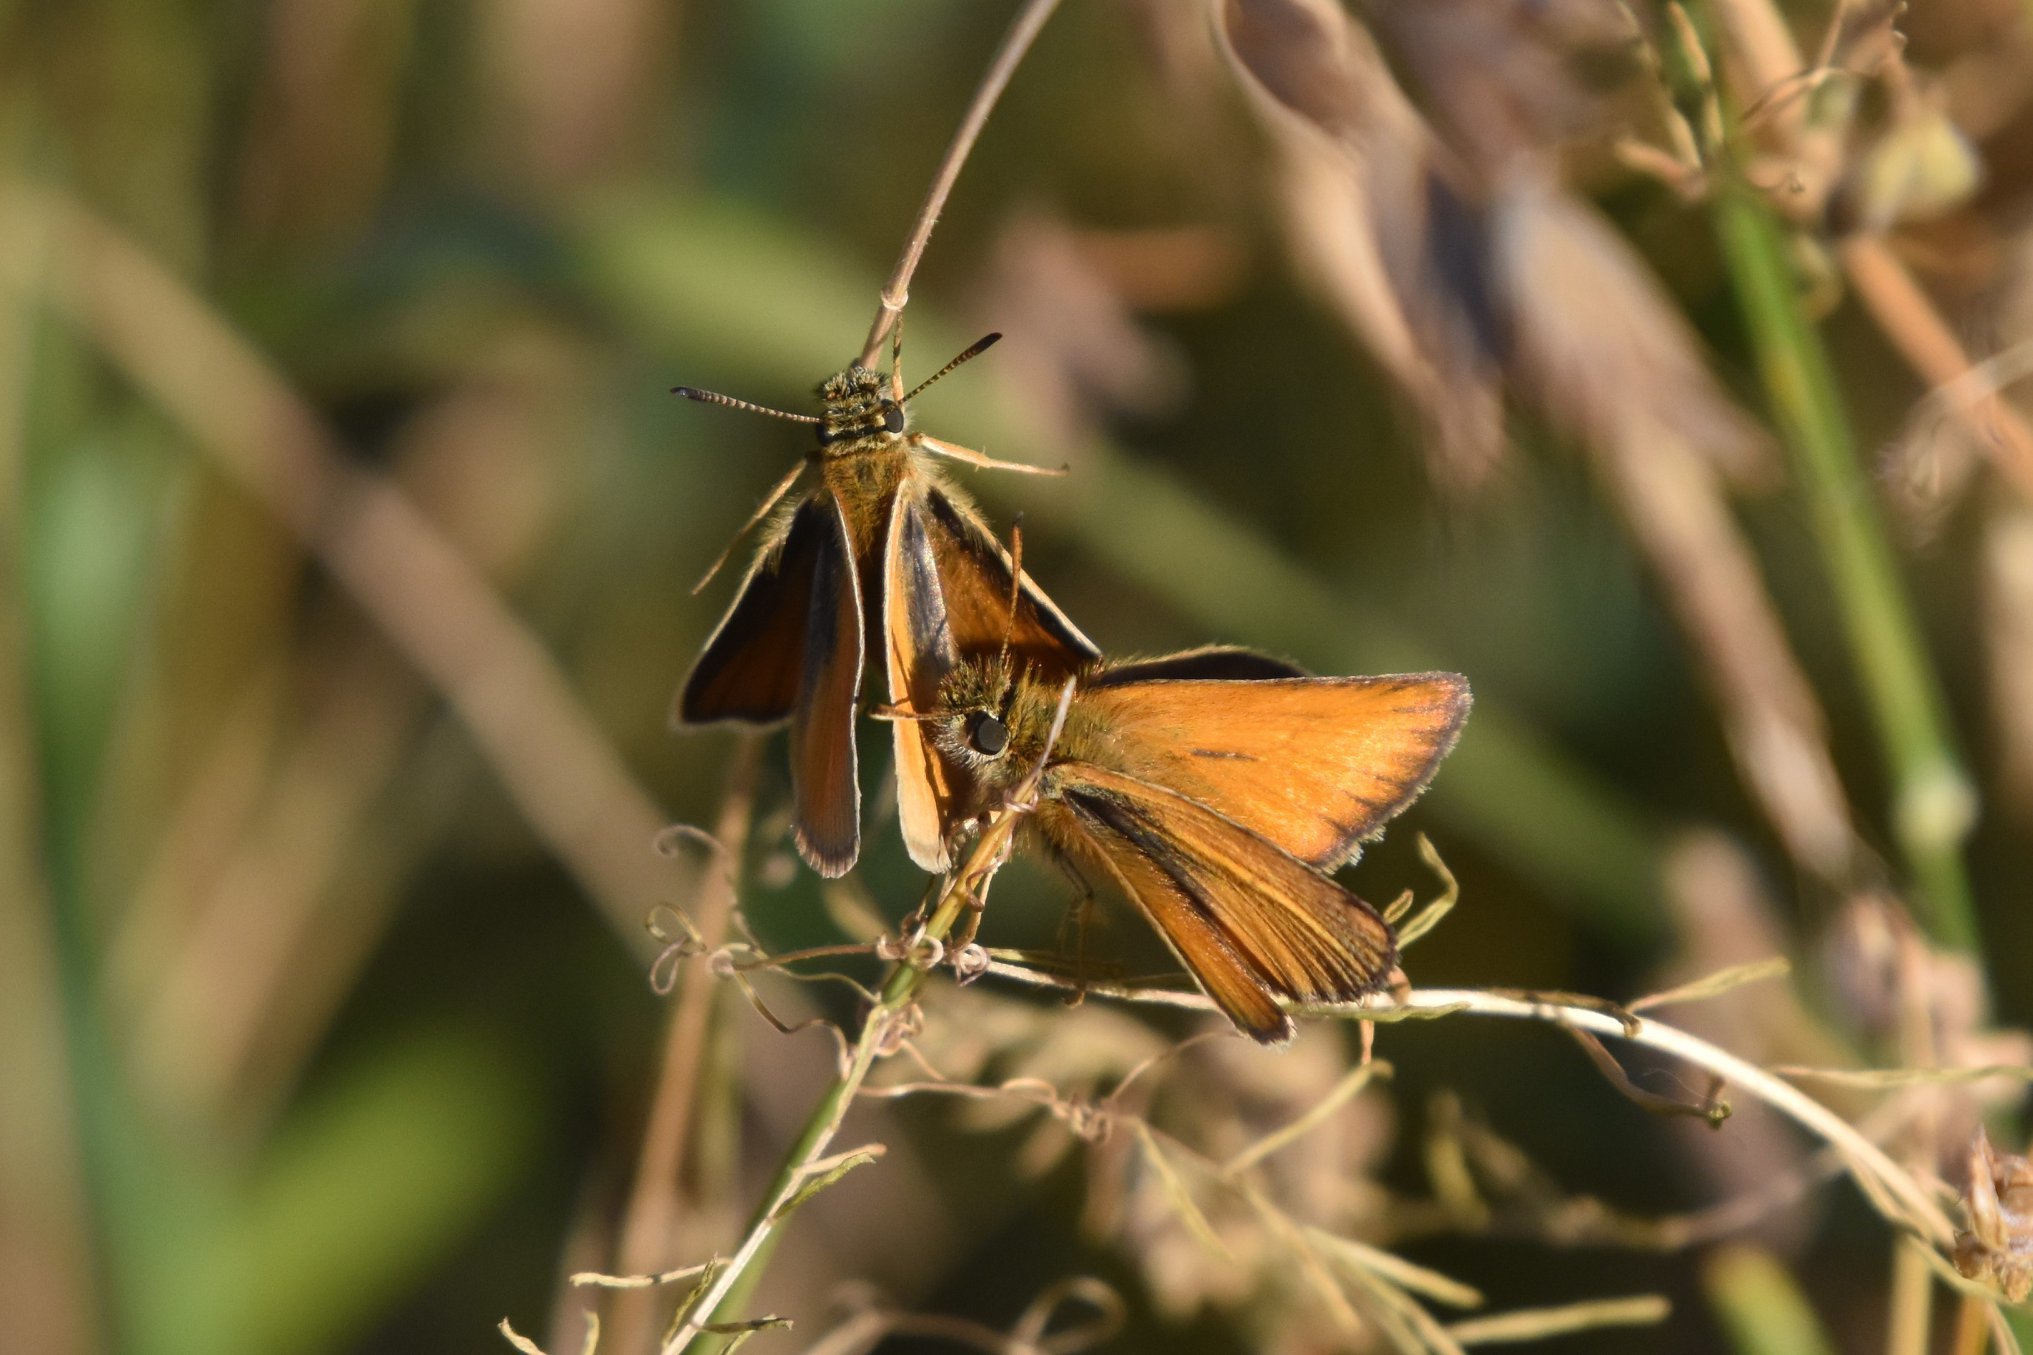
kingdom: Animalia
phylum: Arthropoda
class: Insecta
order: Lepidoptera
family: Hesperiidae
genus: Thymelicus
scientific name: Thymelicus lineola
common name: Essex skipper
